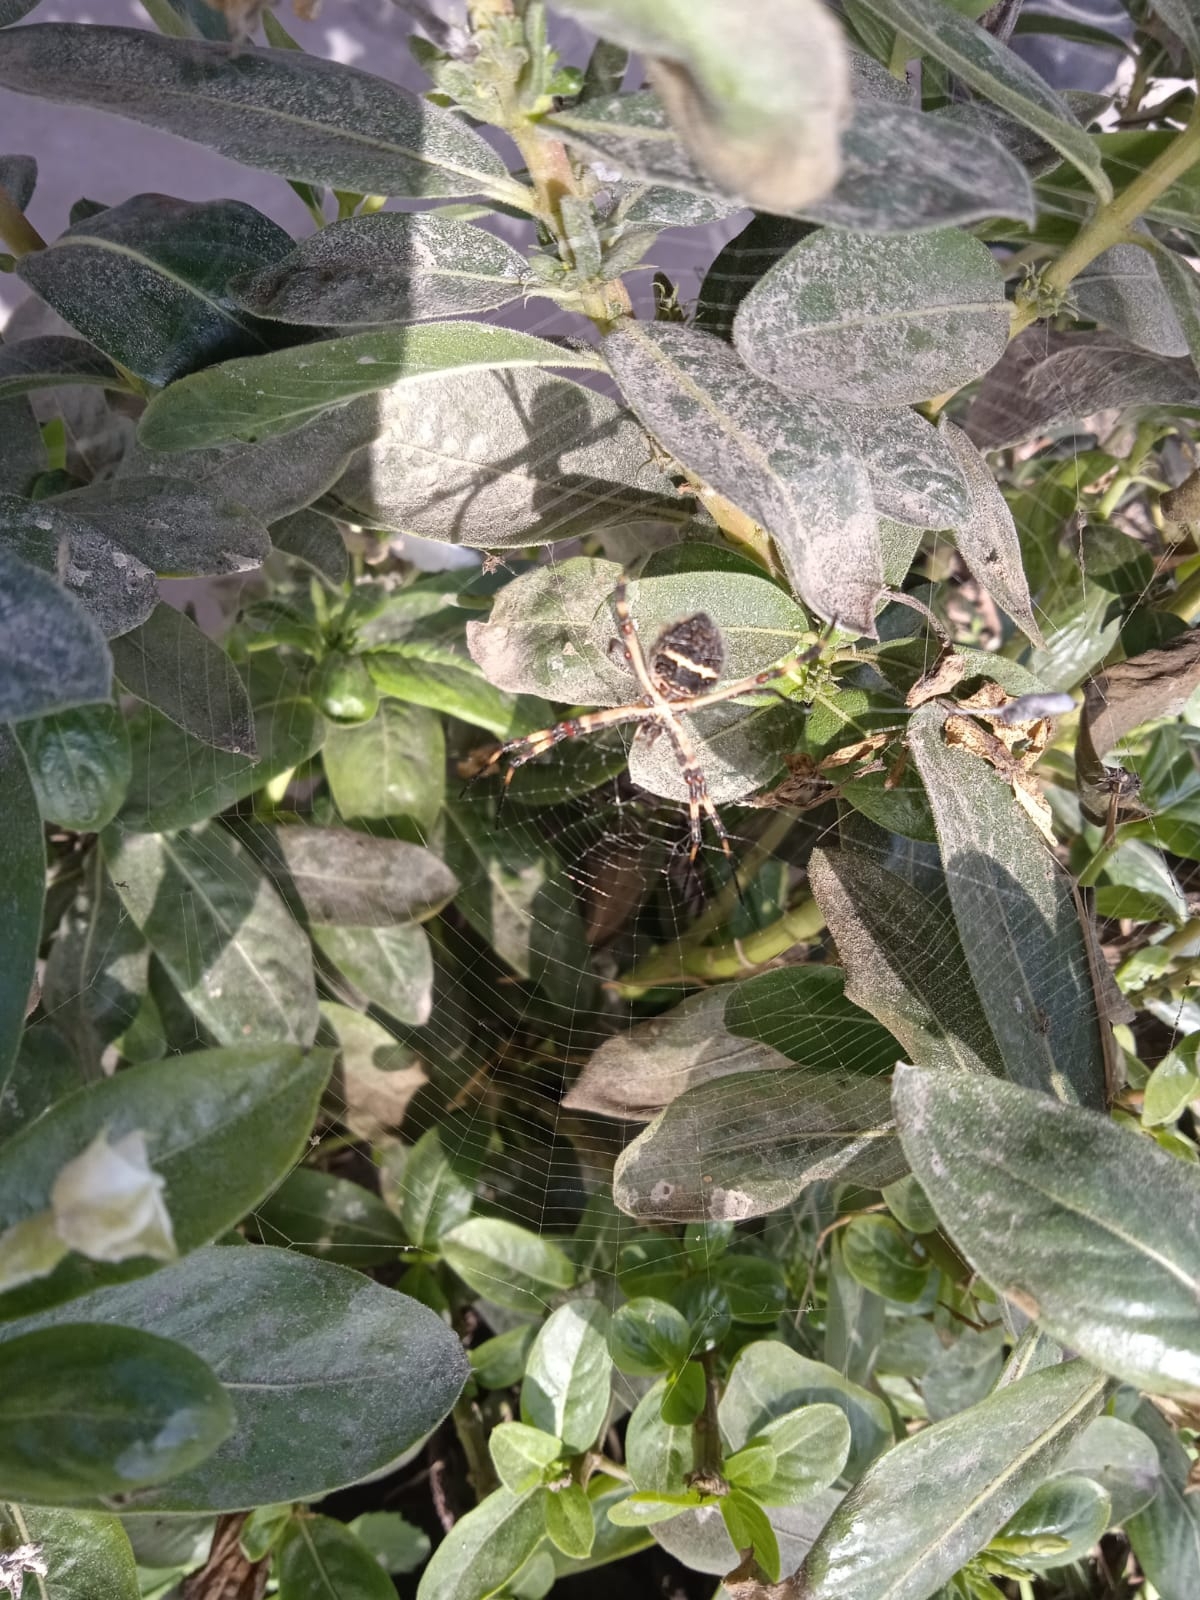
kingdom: Animalia
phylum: Arthropoda
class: Arachnida
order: Araneae
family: Araneidae
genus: Argiope
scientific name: Argiope argentata
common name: Orb weavers
